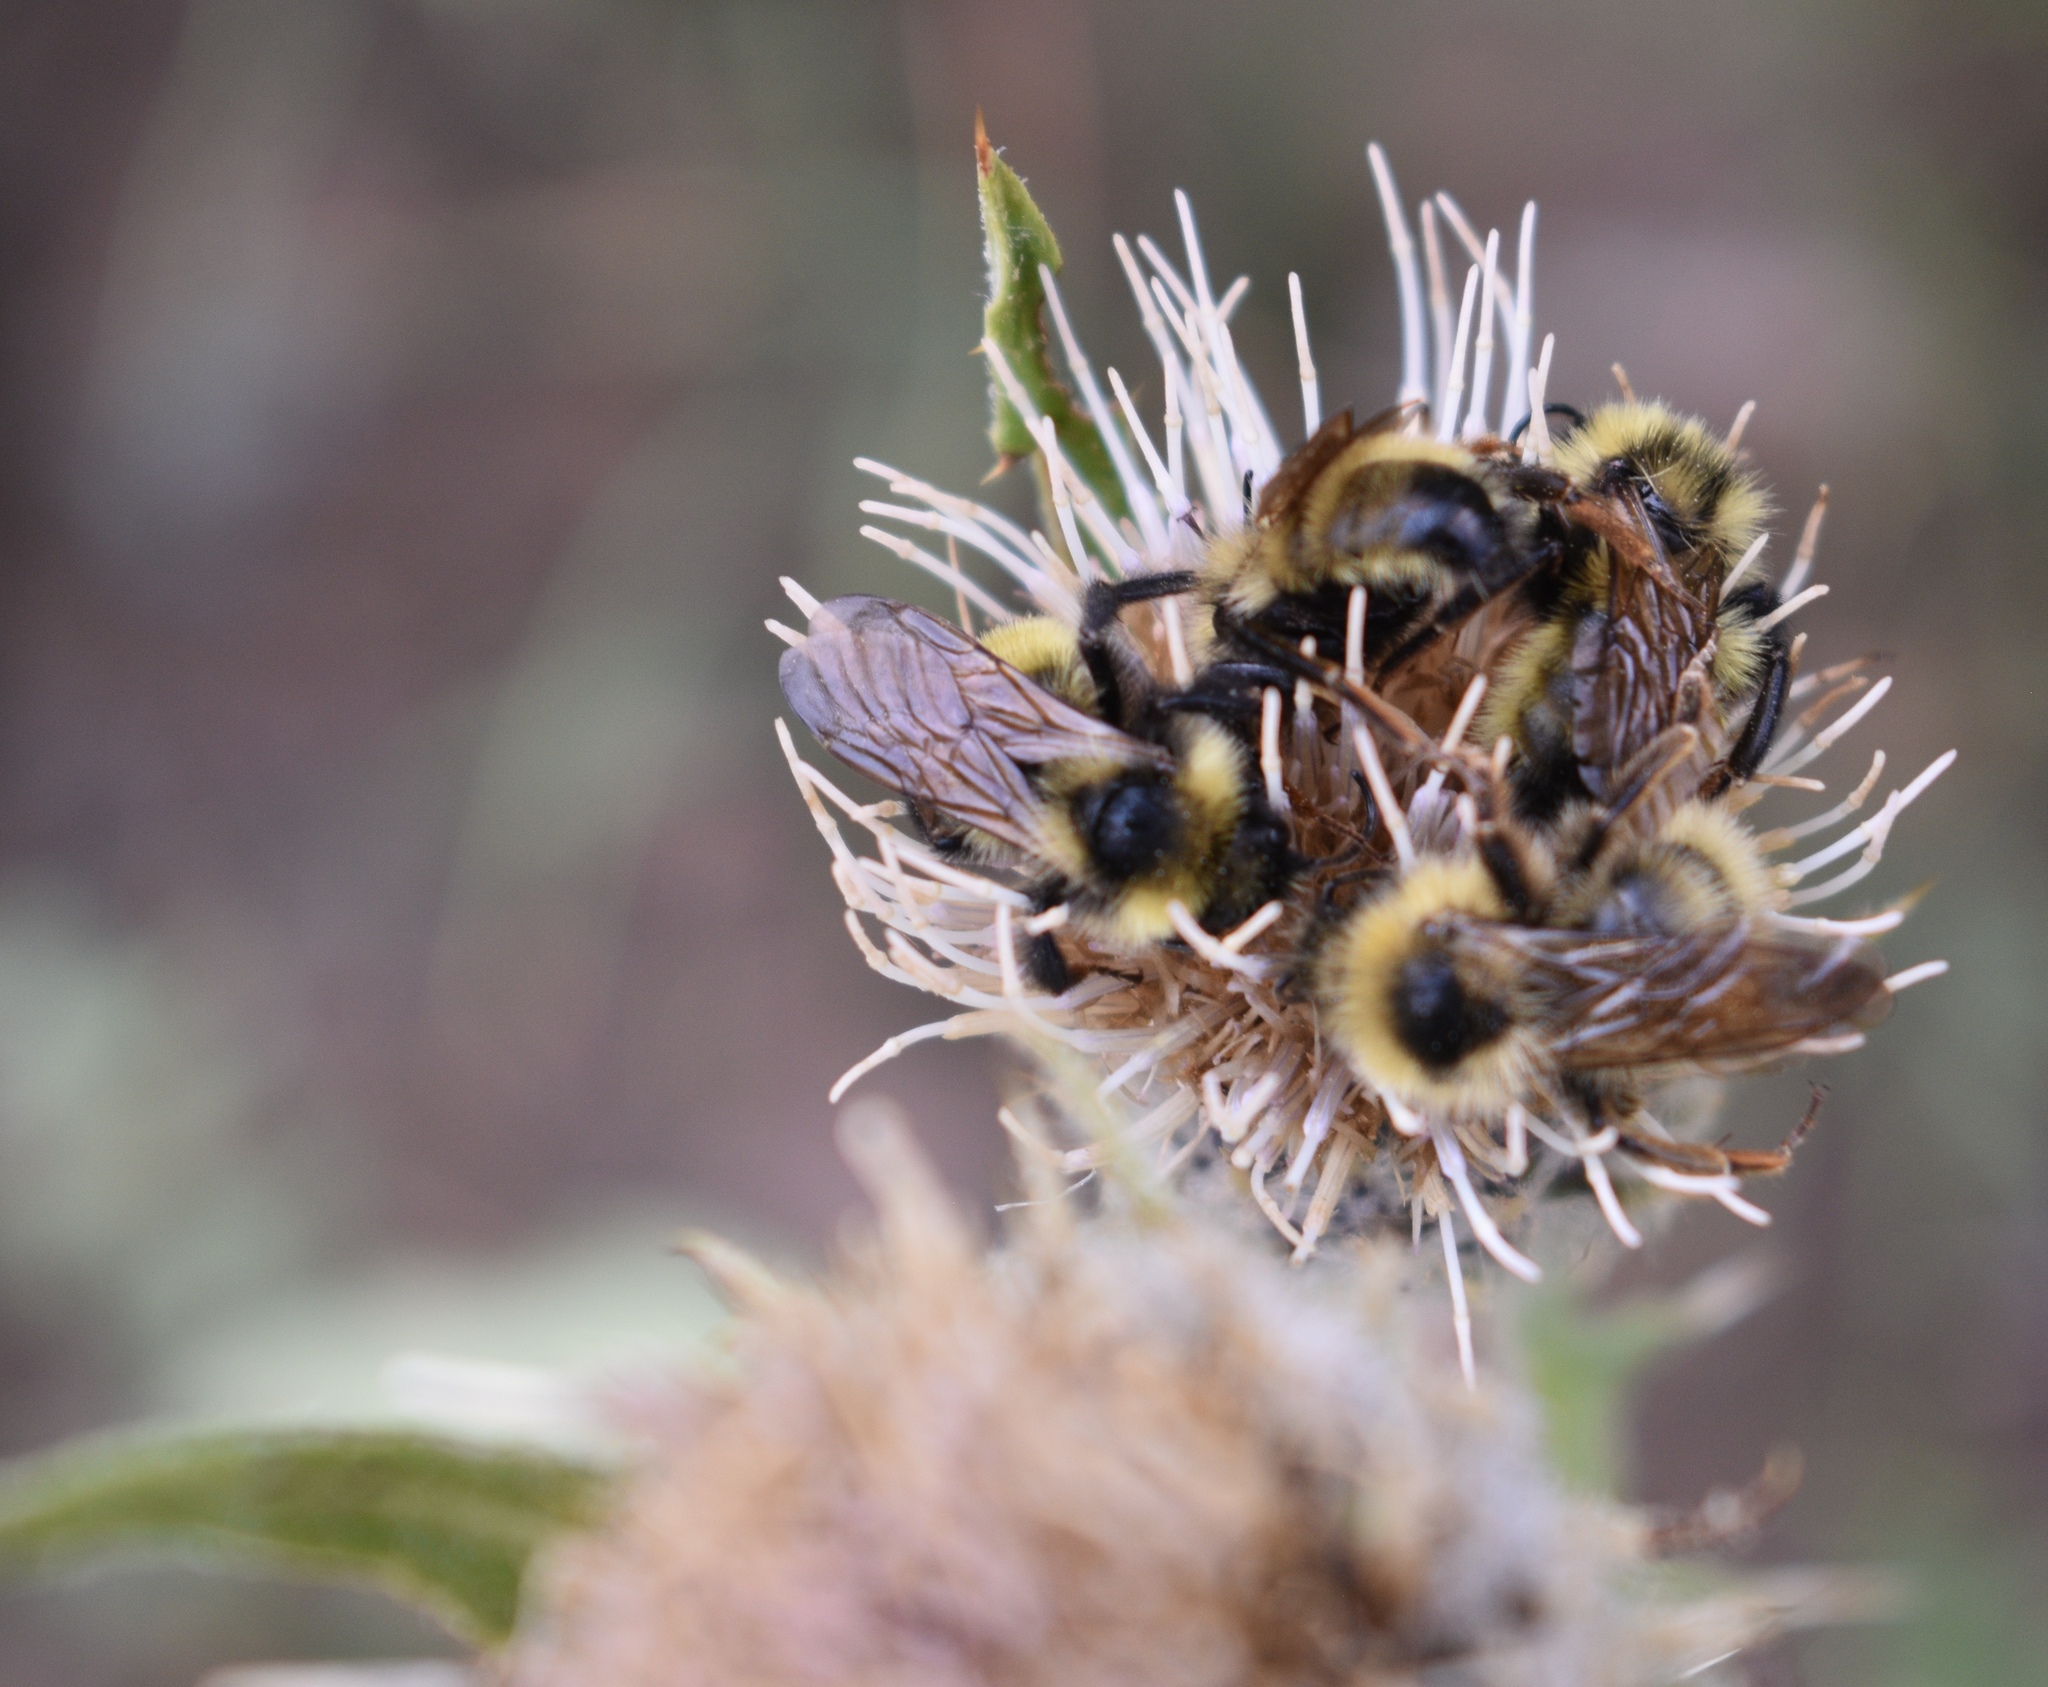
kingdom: Animalia
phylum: Arthropoda
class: Insecta
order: Hymenoptera
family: Apidae
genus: Bombus
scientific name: Bombus insularis
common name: Indiscriminate cuckoo bumble bee
